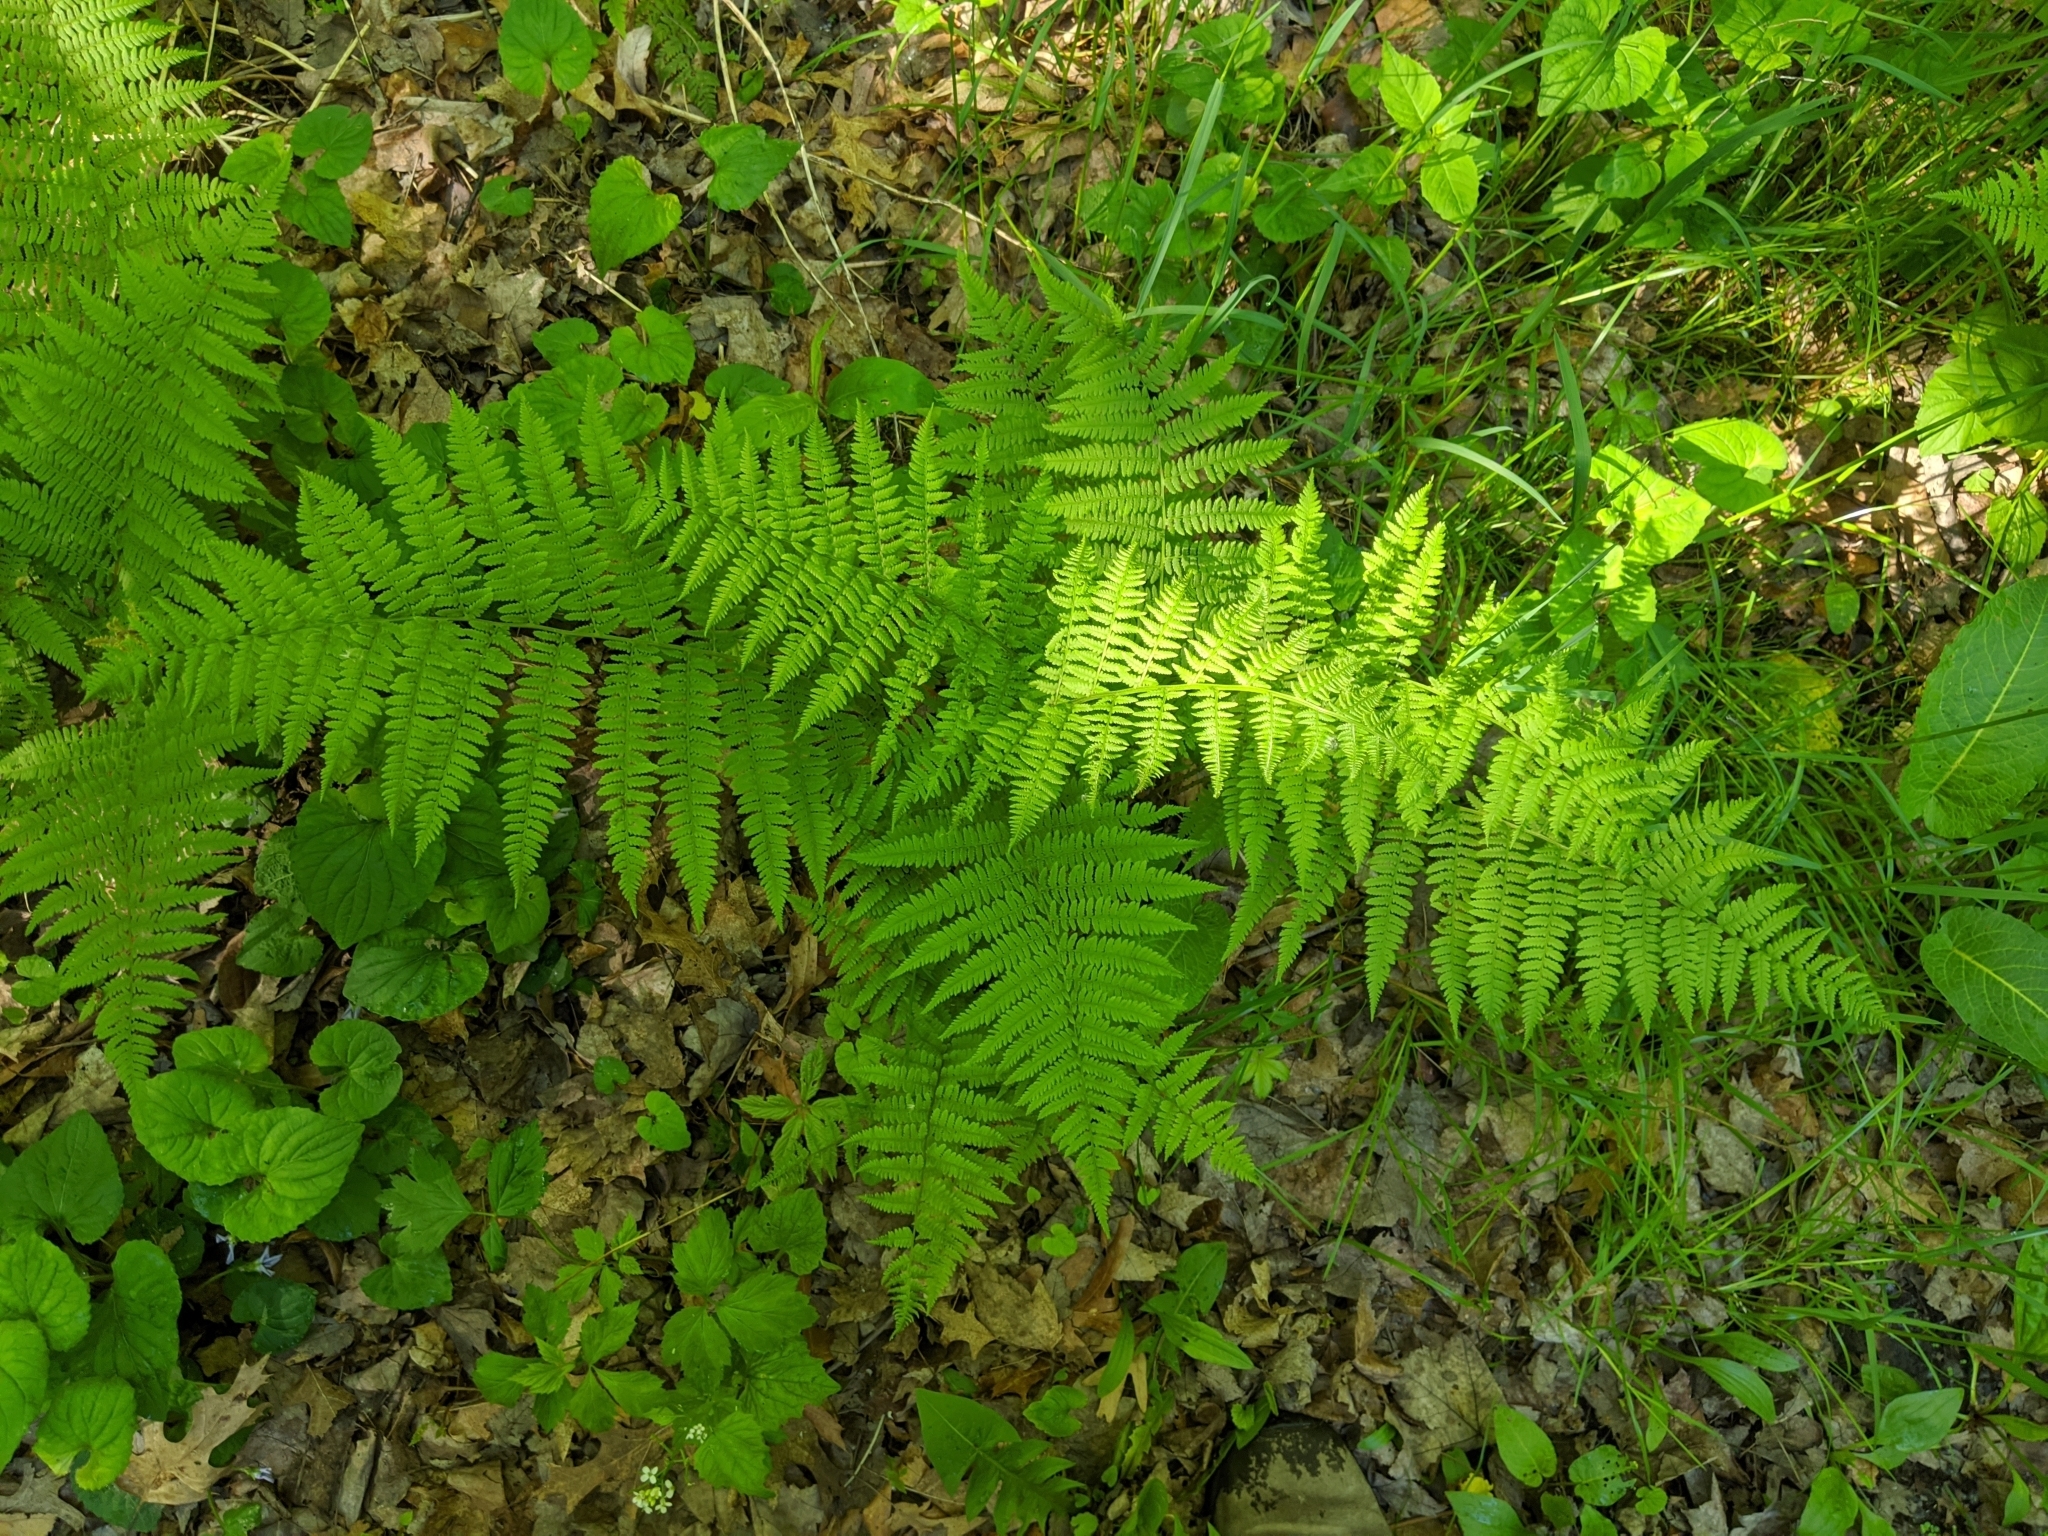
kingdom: Plantae
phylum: Tracheophyta
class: Polypodiopsida
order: Polypodiales
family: Athyriaceae
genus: Athyrium
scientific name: Athyrium angustum
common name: Northern lady fern
